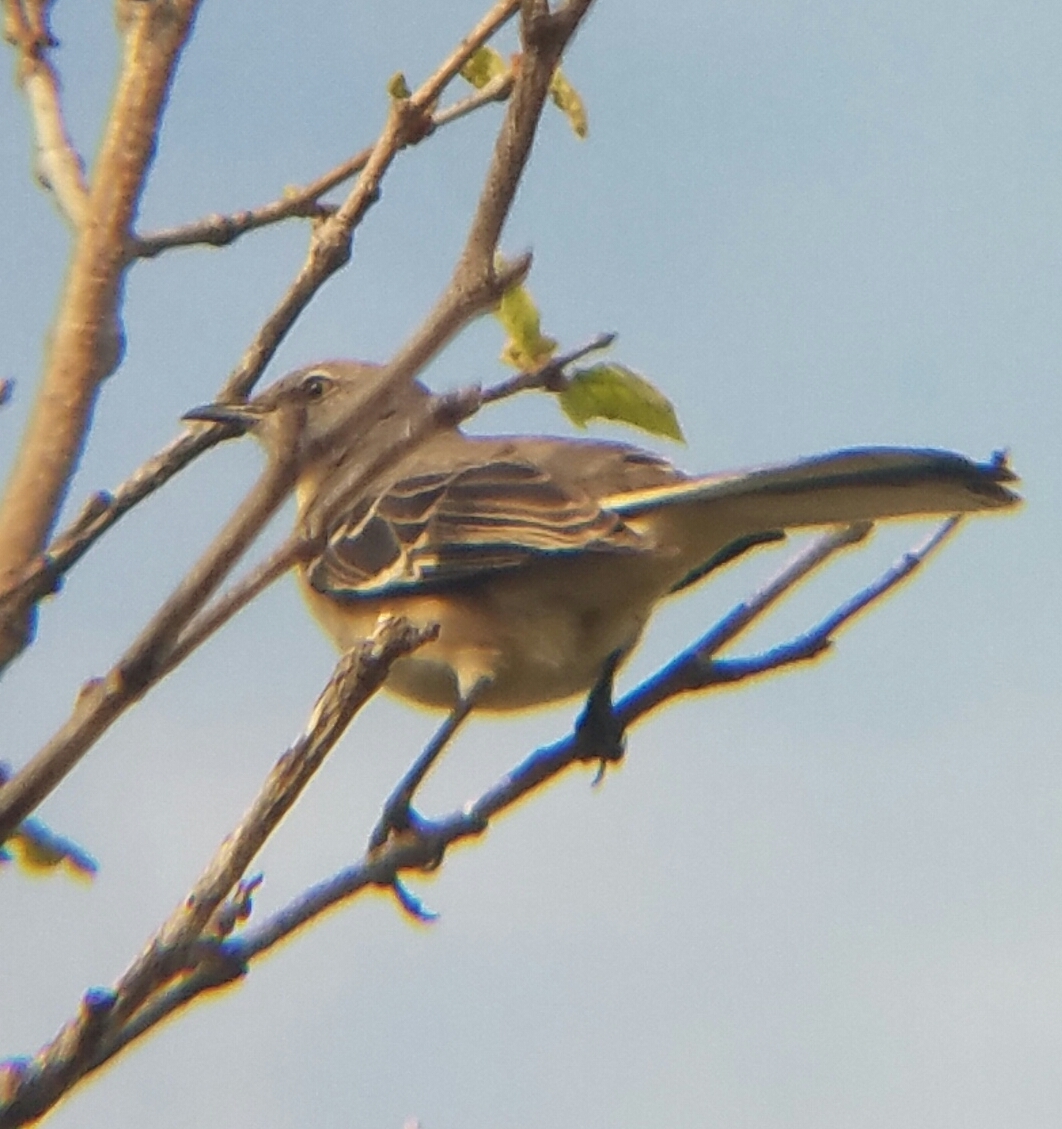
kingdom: Animalia
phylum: Chordata
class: Aves
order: Passeriformes
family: Mimidae
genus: Mimus
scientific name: Mimus polyglottos
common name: Northern mockingbird
